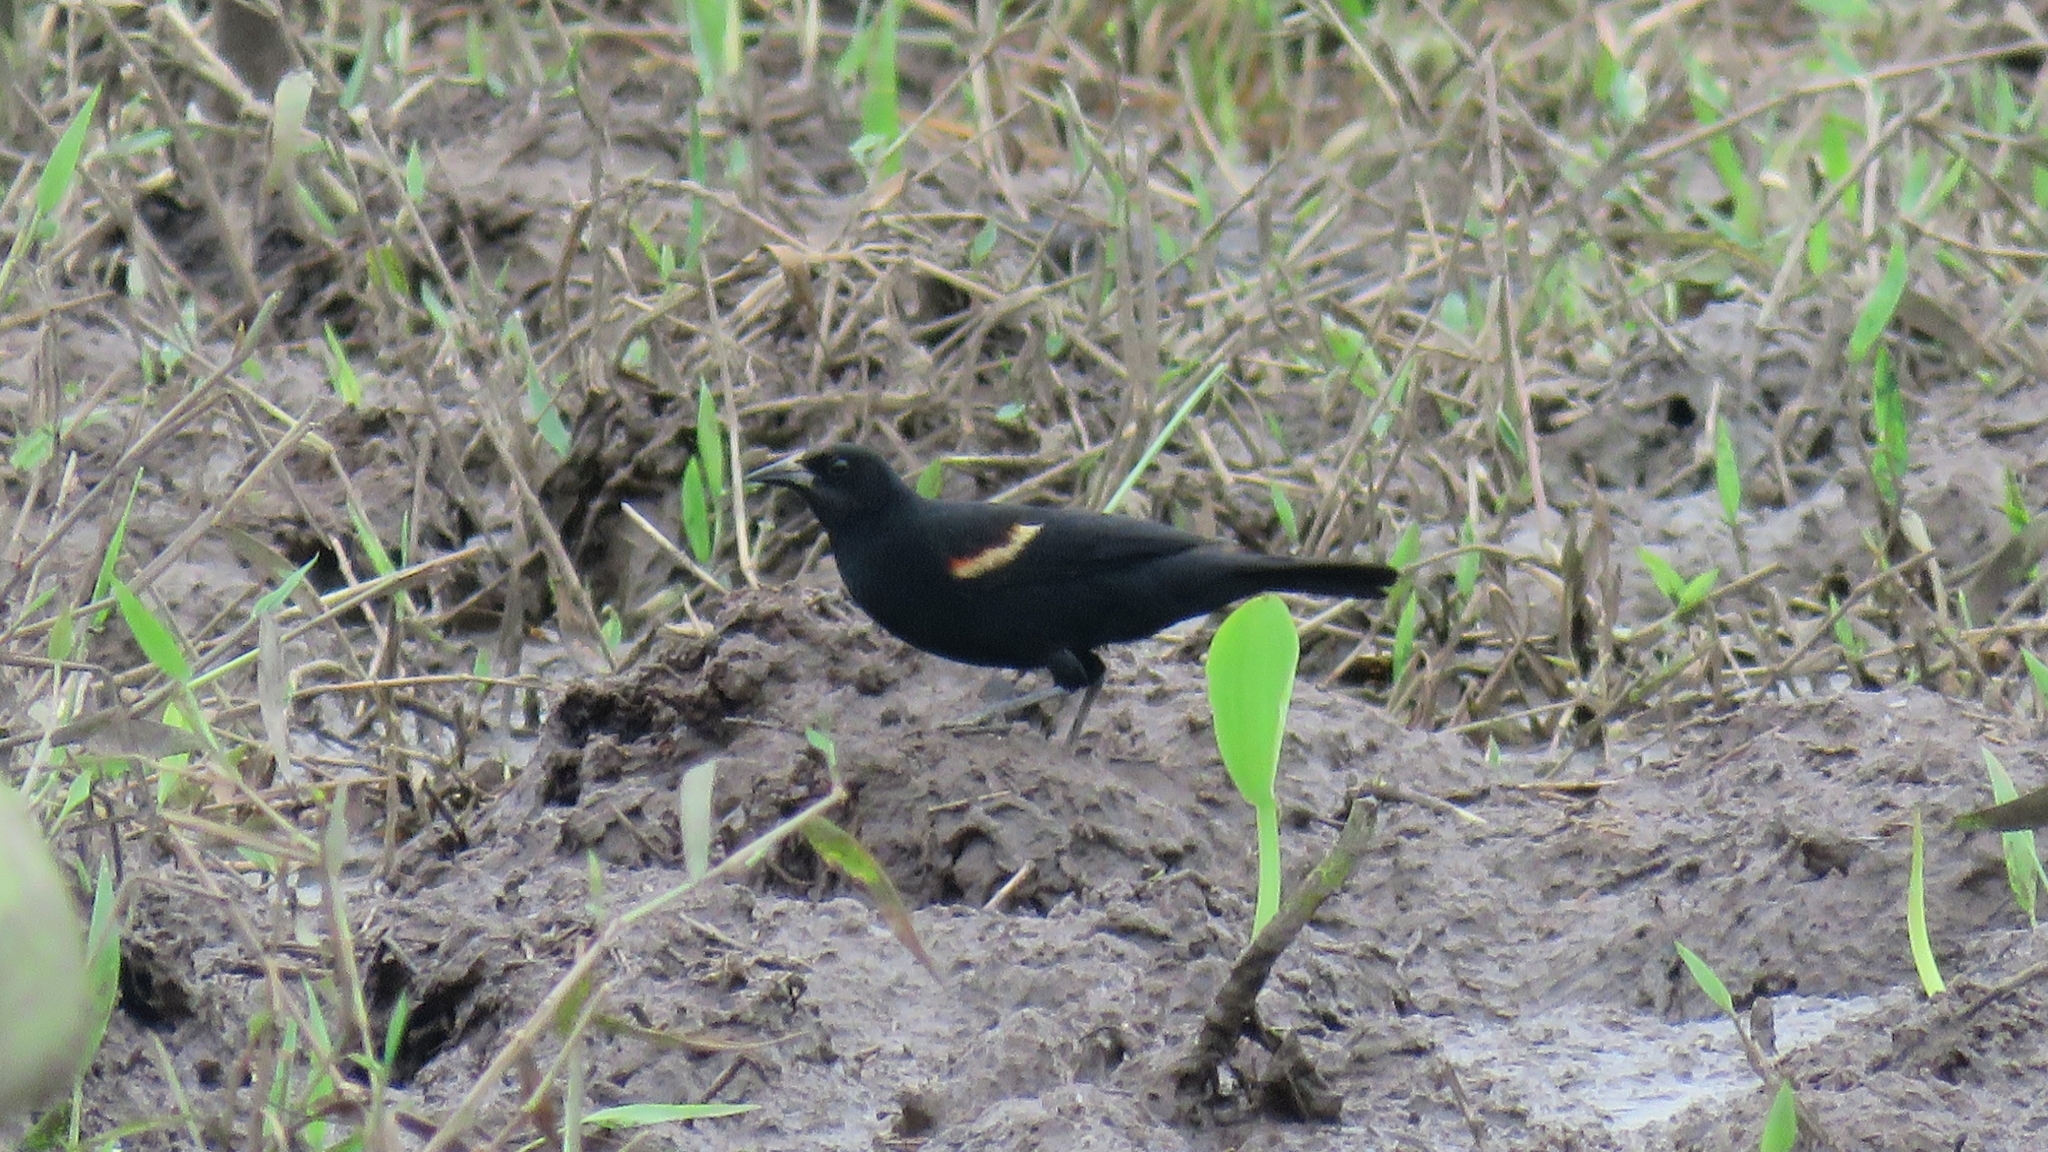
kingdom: Animalia
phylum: Chordata
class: Aves
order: Passeriformes
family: Icteridae
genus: Agelaius
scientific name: Agelaius phoeniceus
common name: Red-winged blackbird
